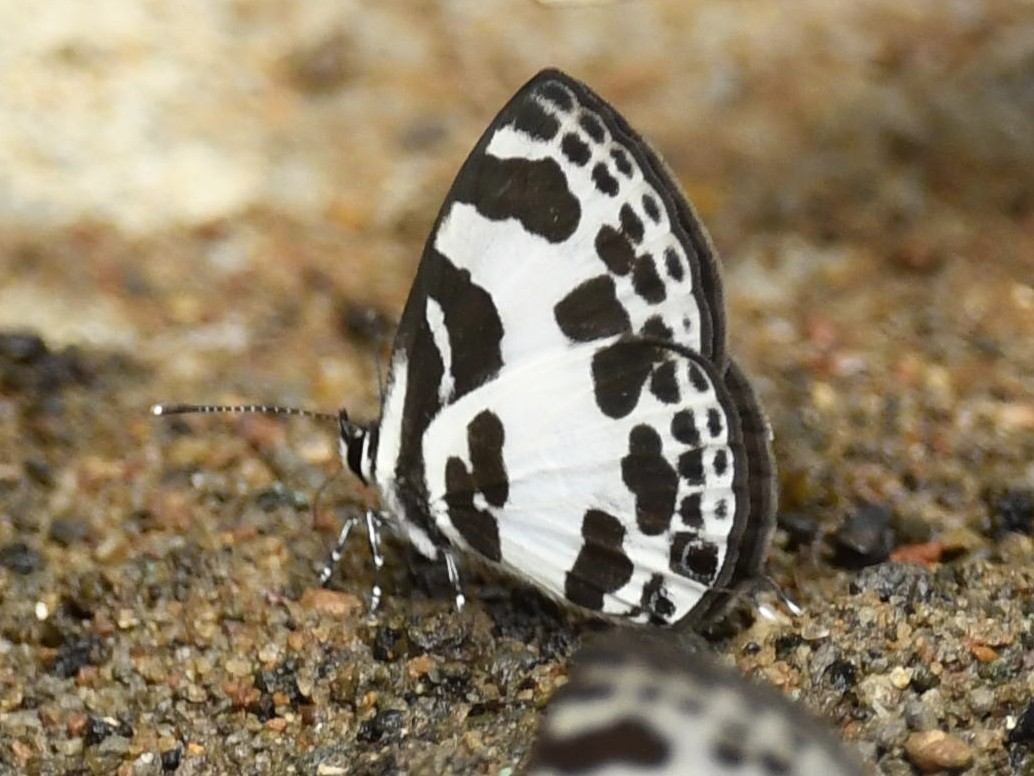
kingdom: Animalia
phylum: Arthropoda
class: Insecta
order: Lepidoptera
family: Lycaenidae
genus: Discolampa
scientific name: Discolampa ethion
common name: Banded blue pierrot
